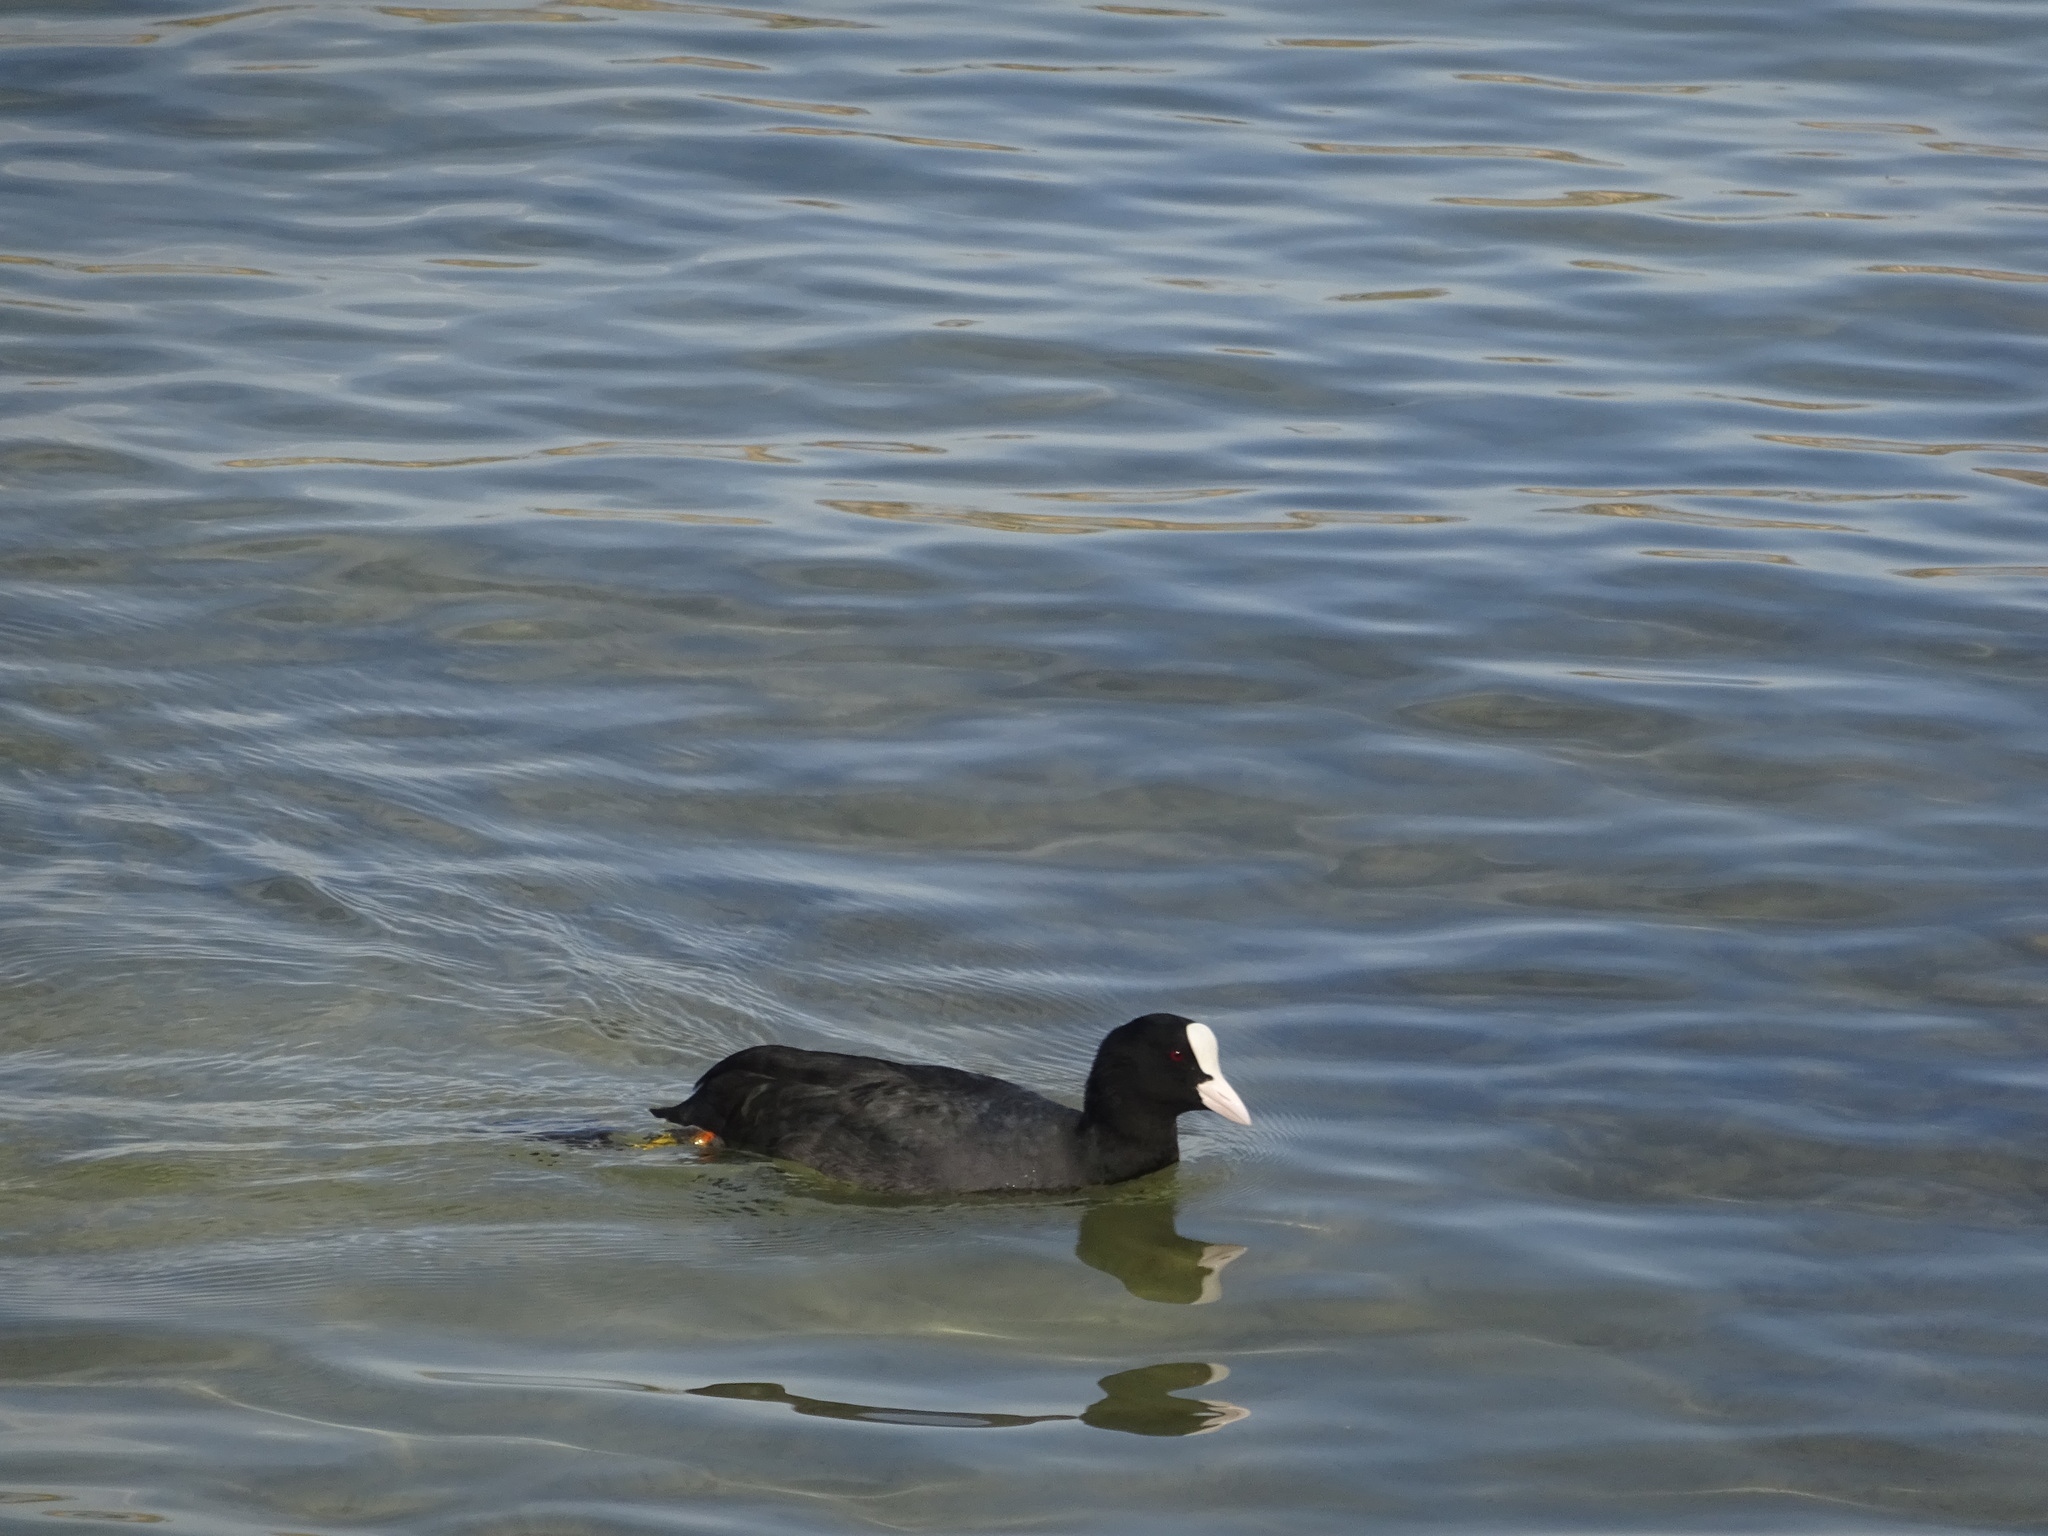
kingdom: Animalia
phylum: Chordata
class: Aves
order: Gruiformes
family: Rallidae
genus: Fulica
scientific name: Fulica atra
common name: Eurasian coot
